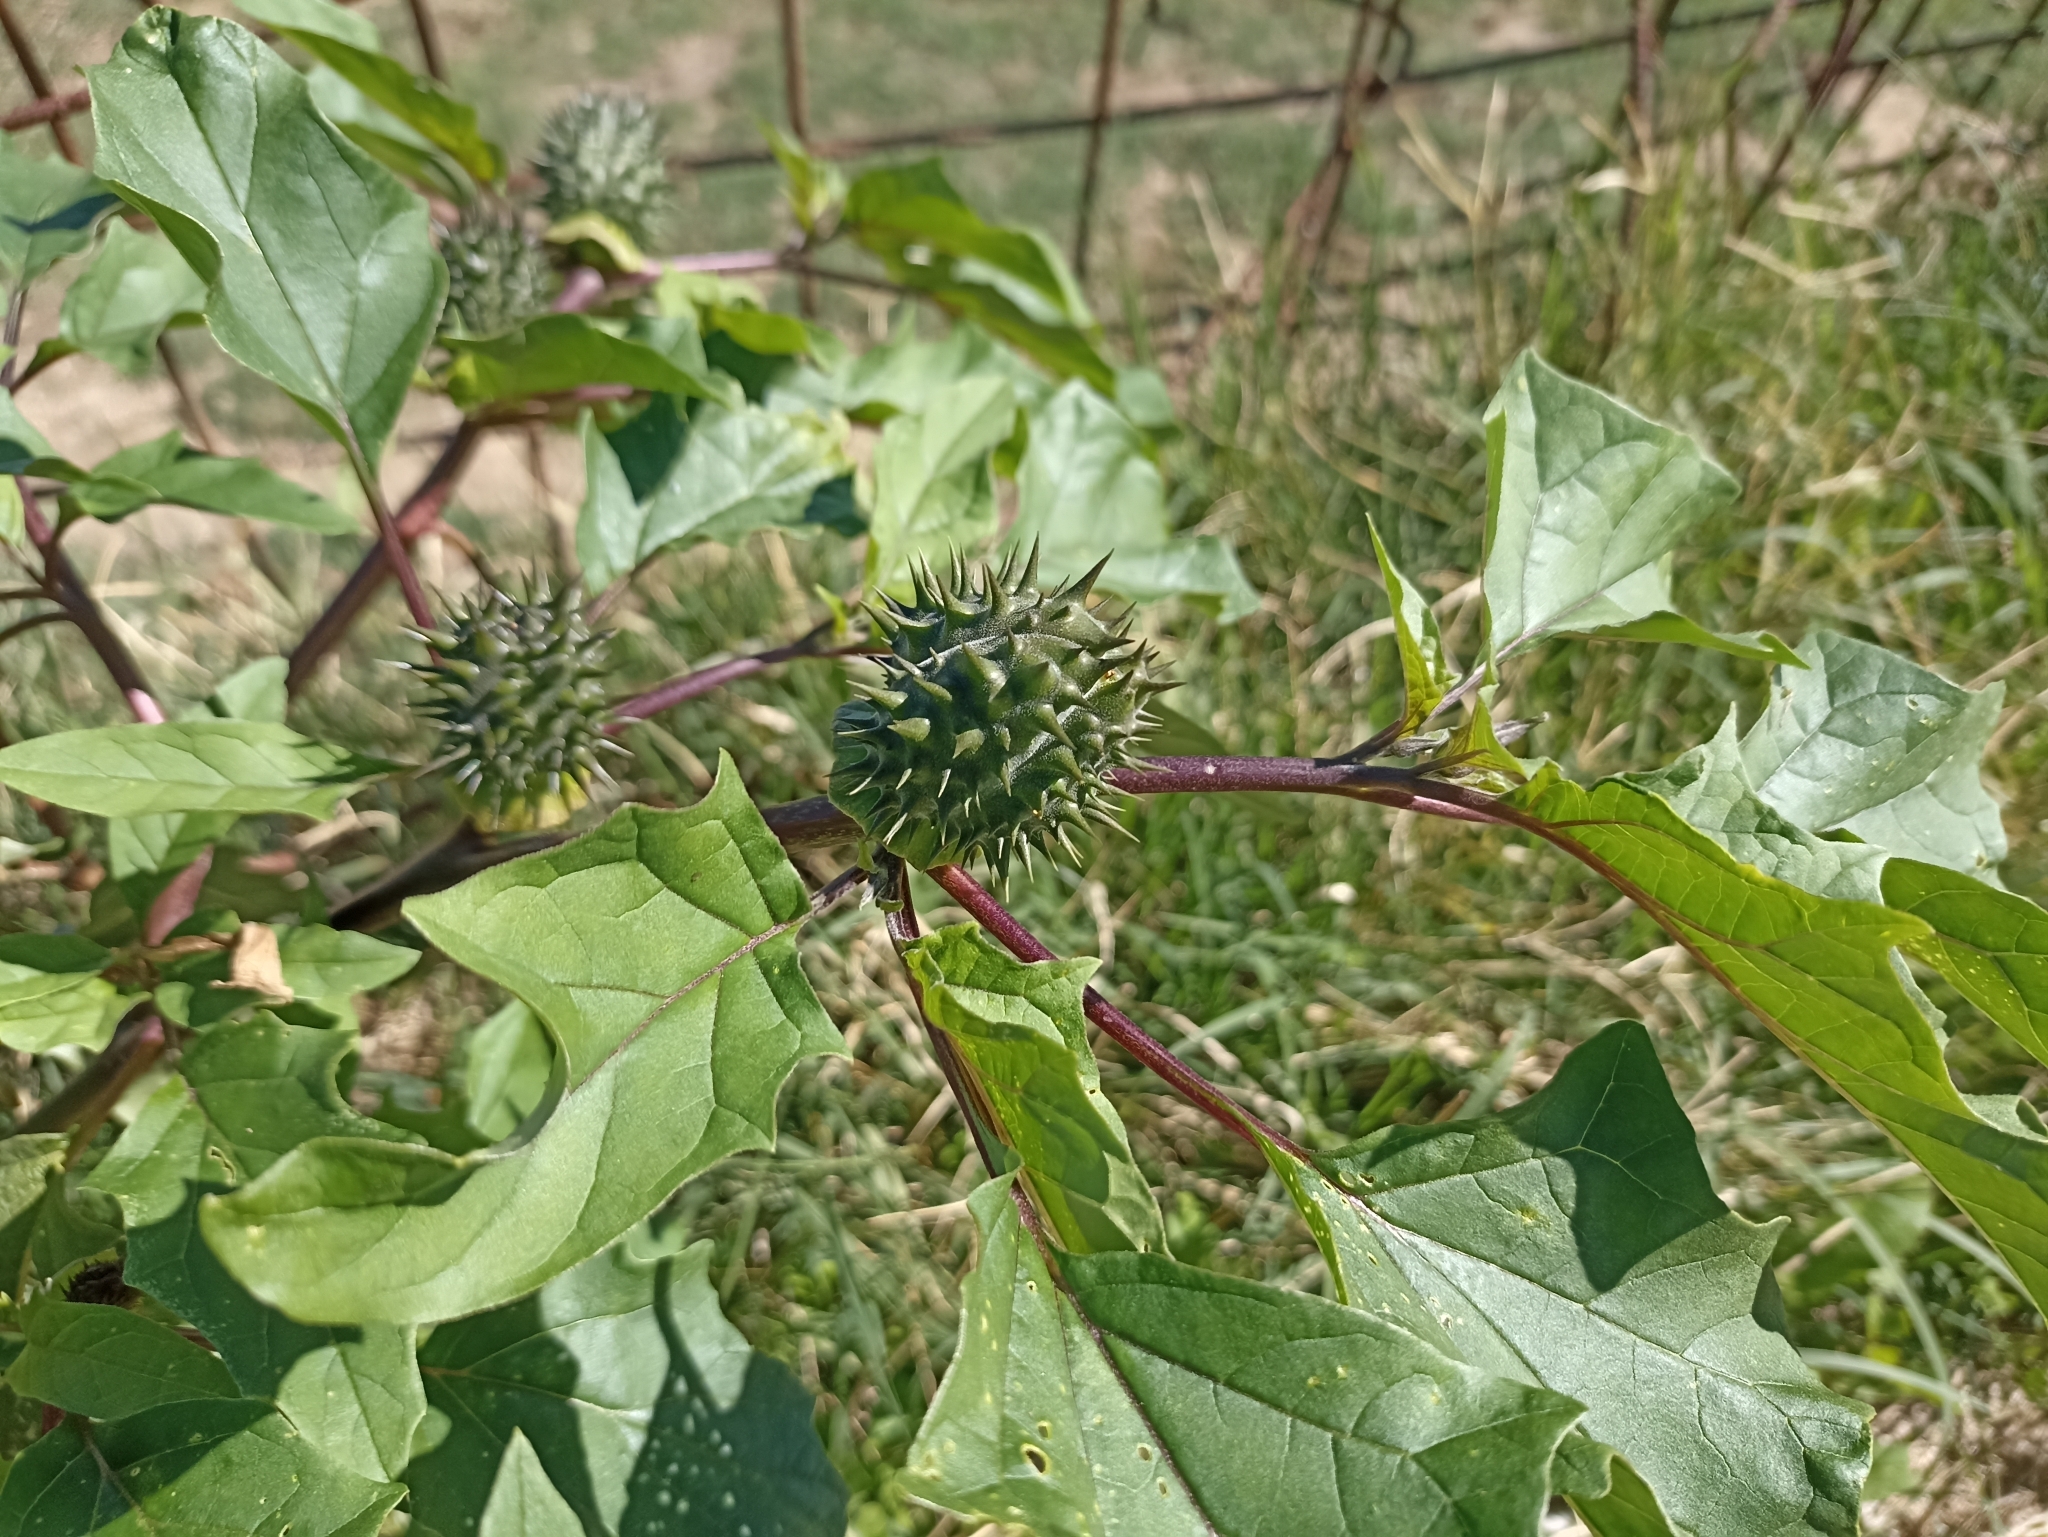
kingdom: Plantae
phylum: Tracheophyta
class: Magnoliopsida
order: Solanales
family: Solanaceae
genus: Datura
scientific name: Datura stramonium
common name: Thorn-apple
